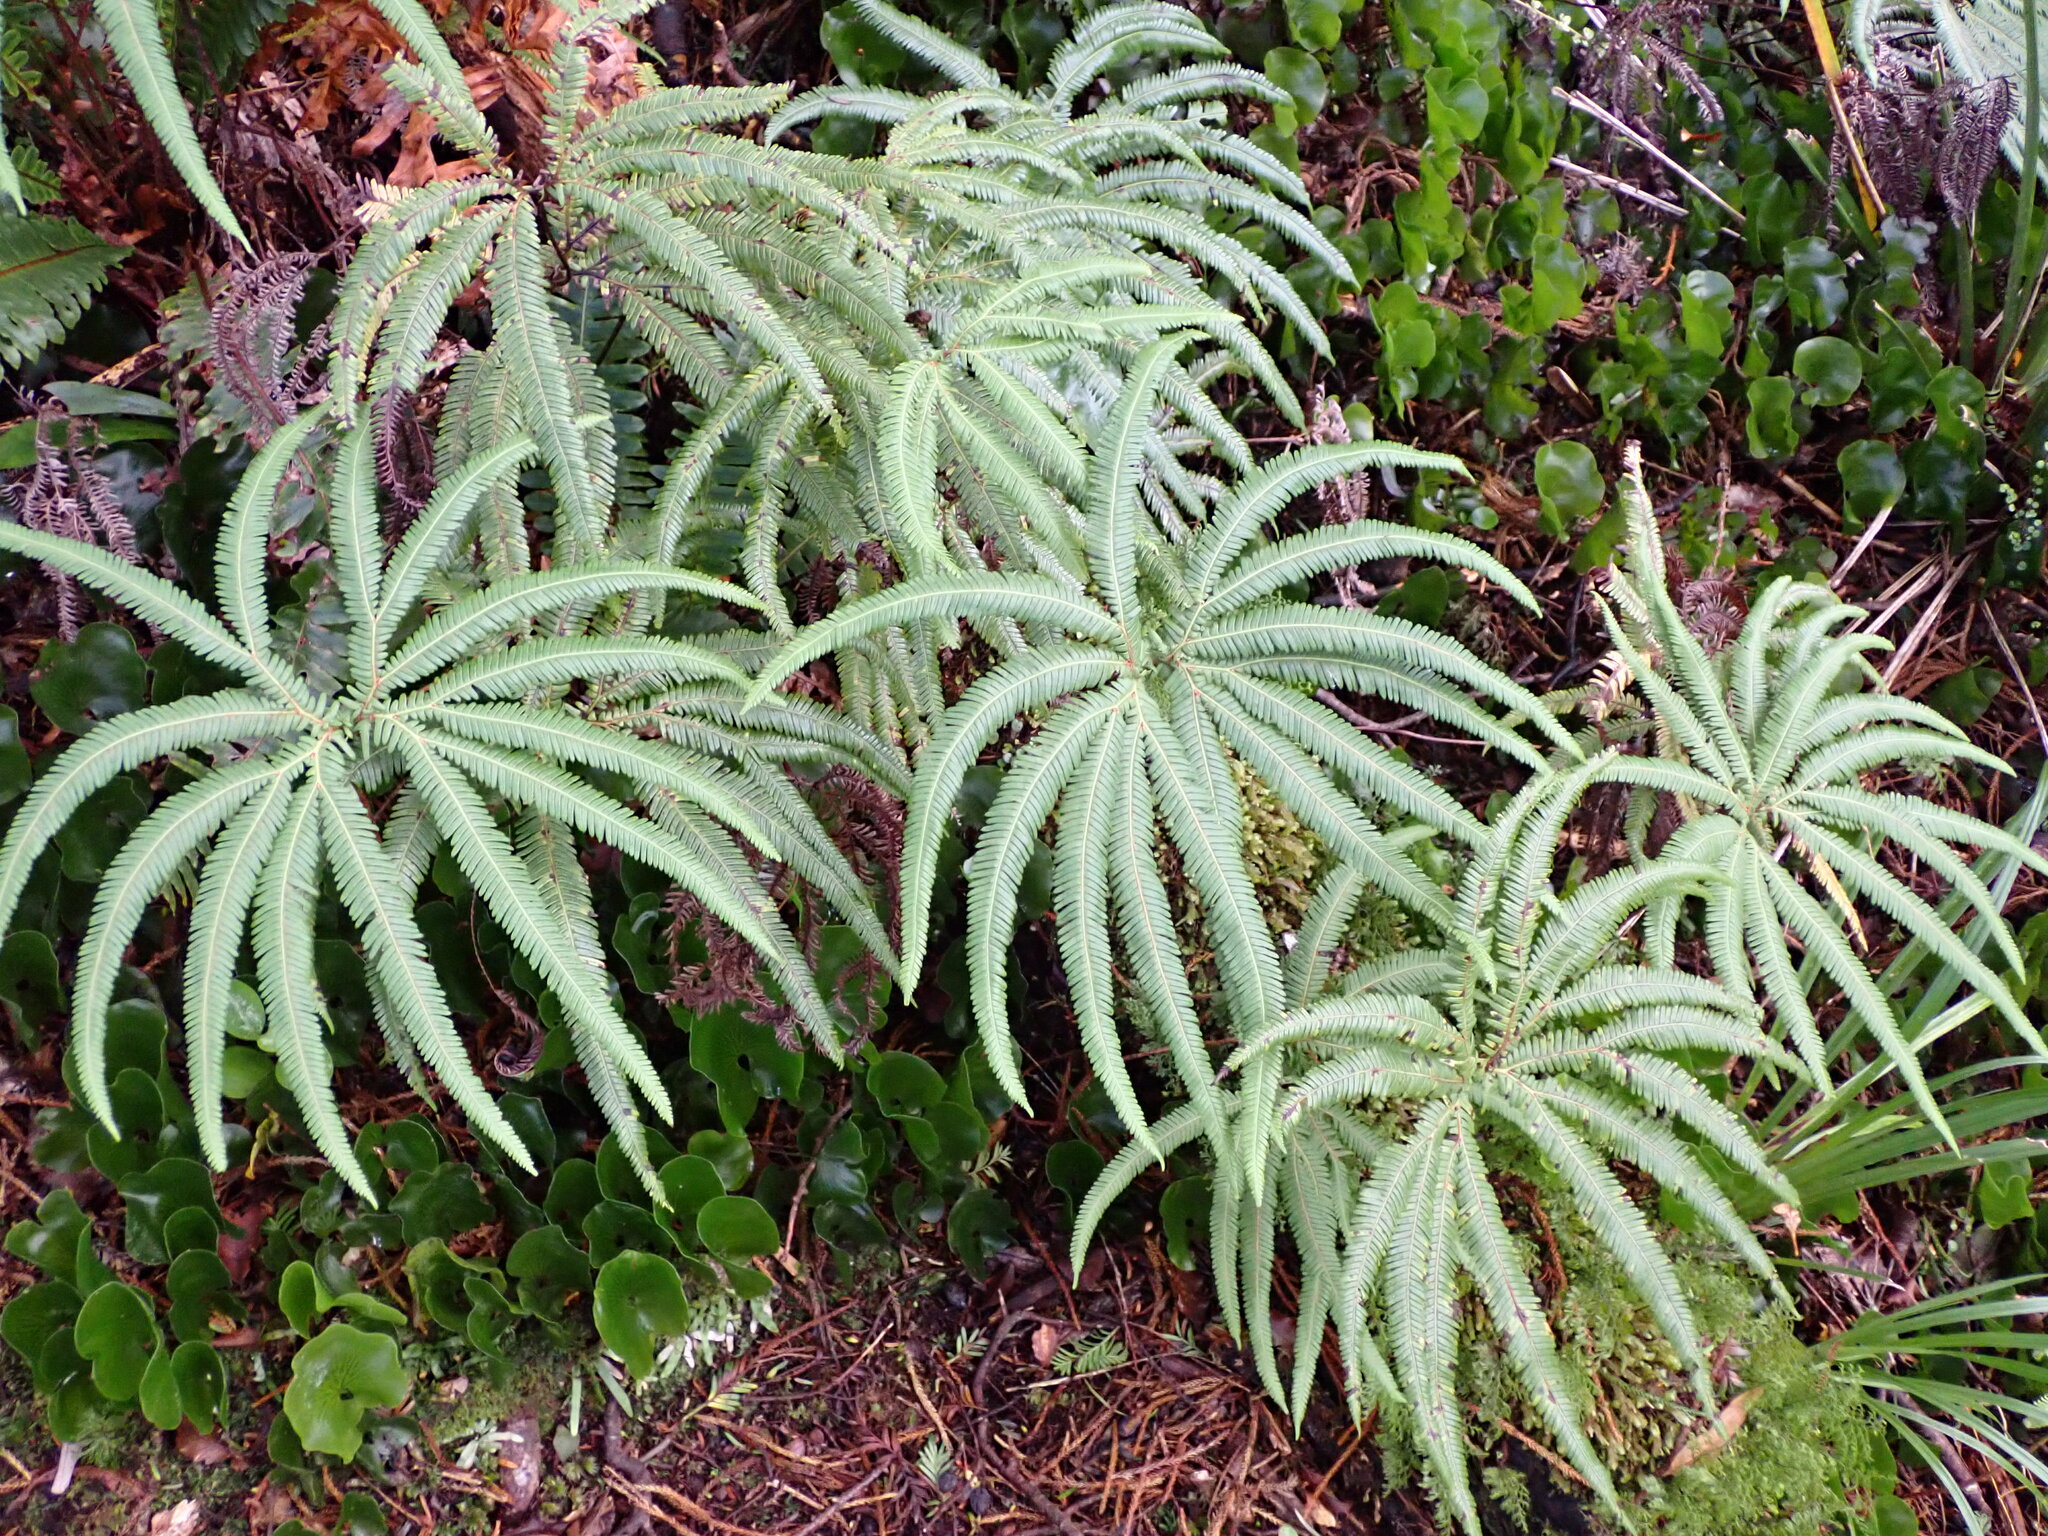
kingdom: Plantae
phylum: Tracheophyta
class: Polypodiopsida
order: Gleicheniales
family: Gleicheniaceae
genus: Sticherus
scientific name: Sticherus cunninghamii
